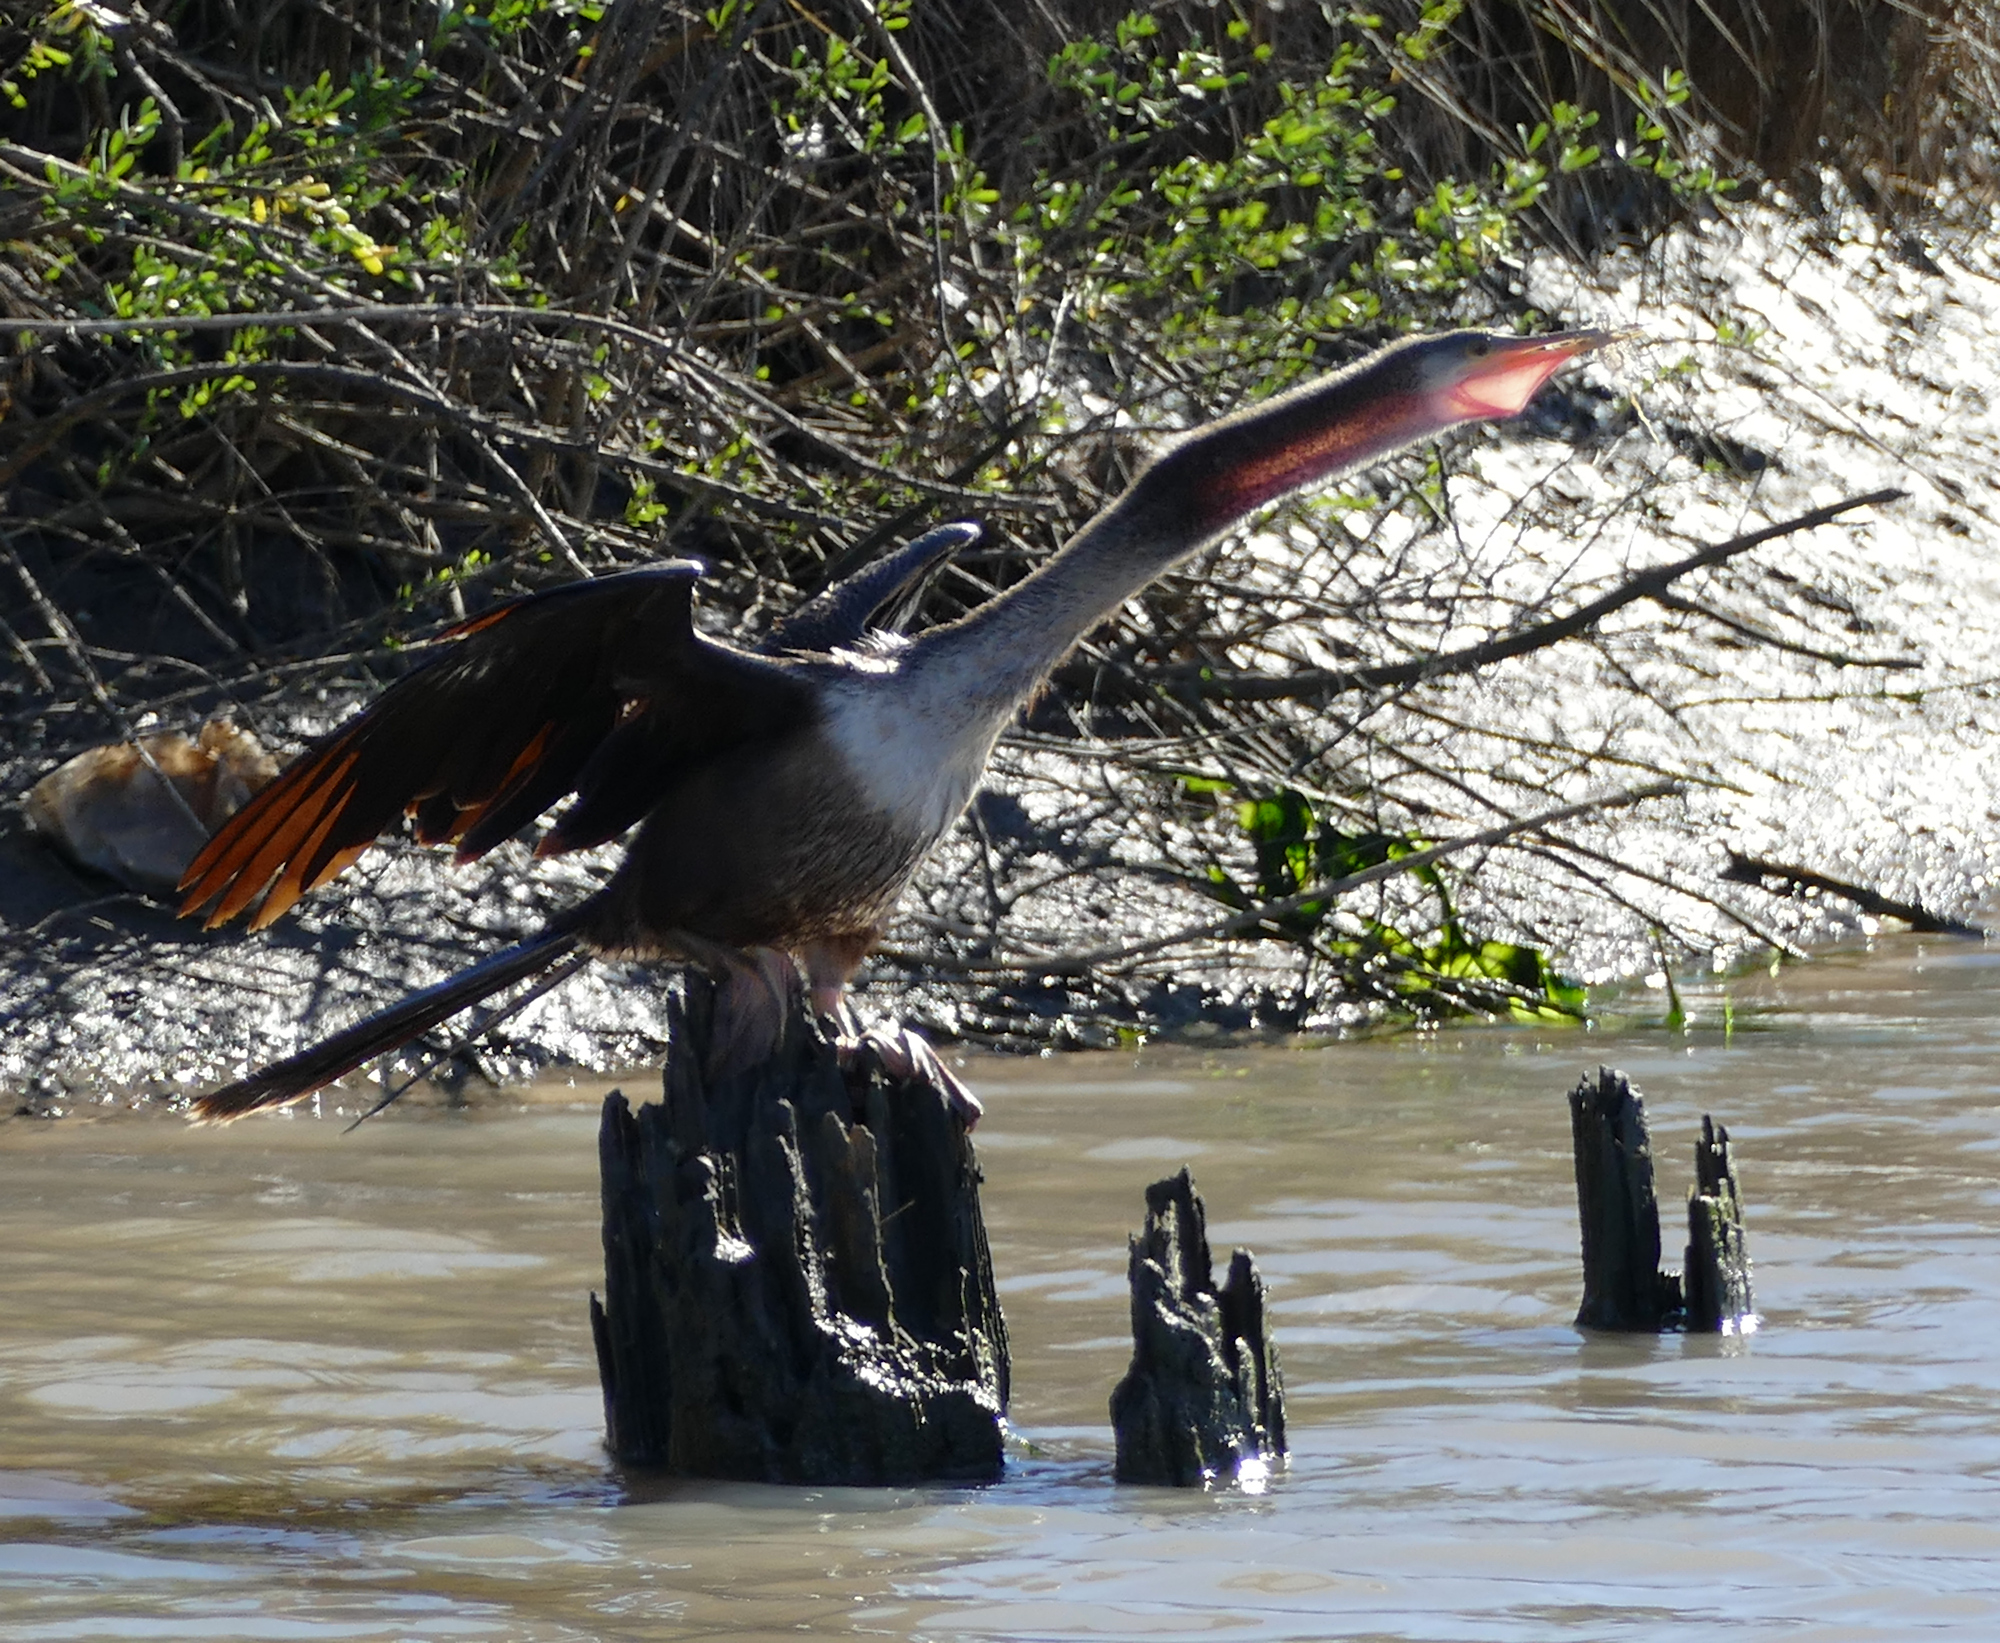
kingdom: Animalia
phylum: Chordata
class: Aves
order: Suliformes
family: Anhingidae
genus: Anhinga
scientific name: Anhinga anhinga
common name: Anhinga
